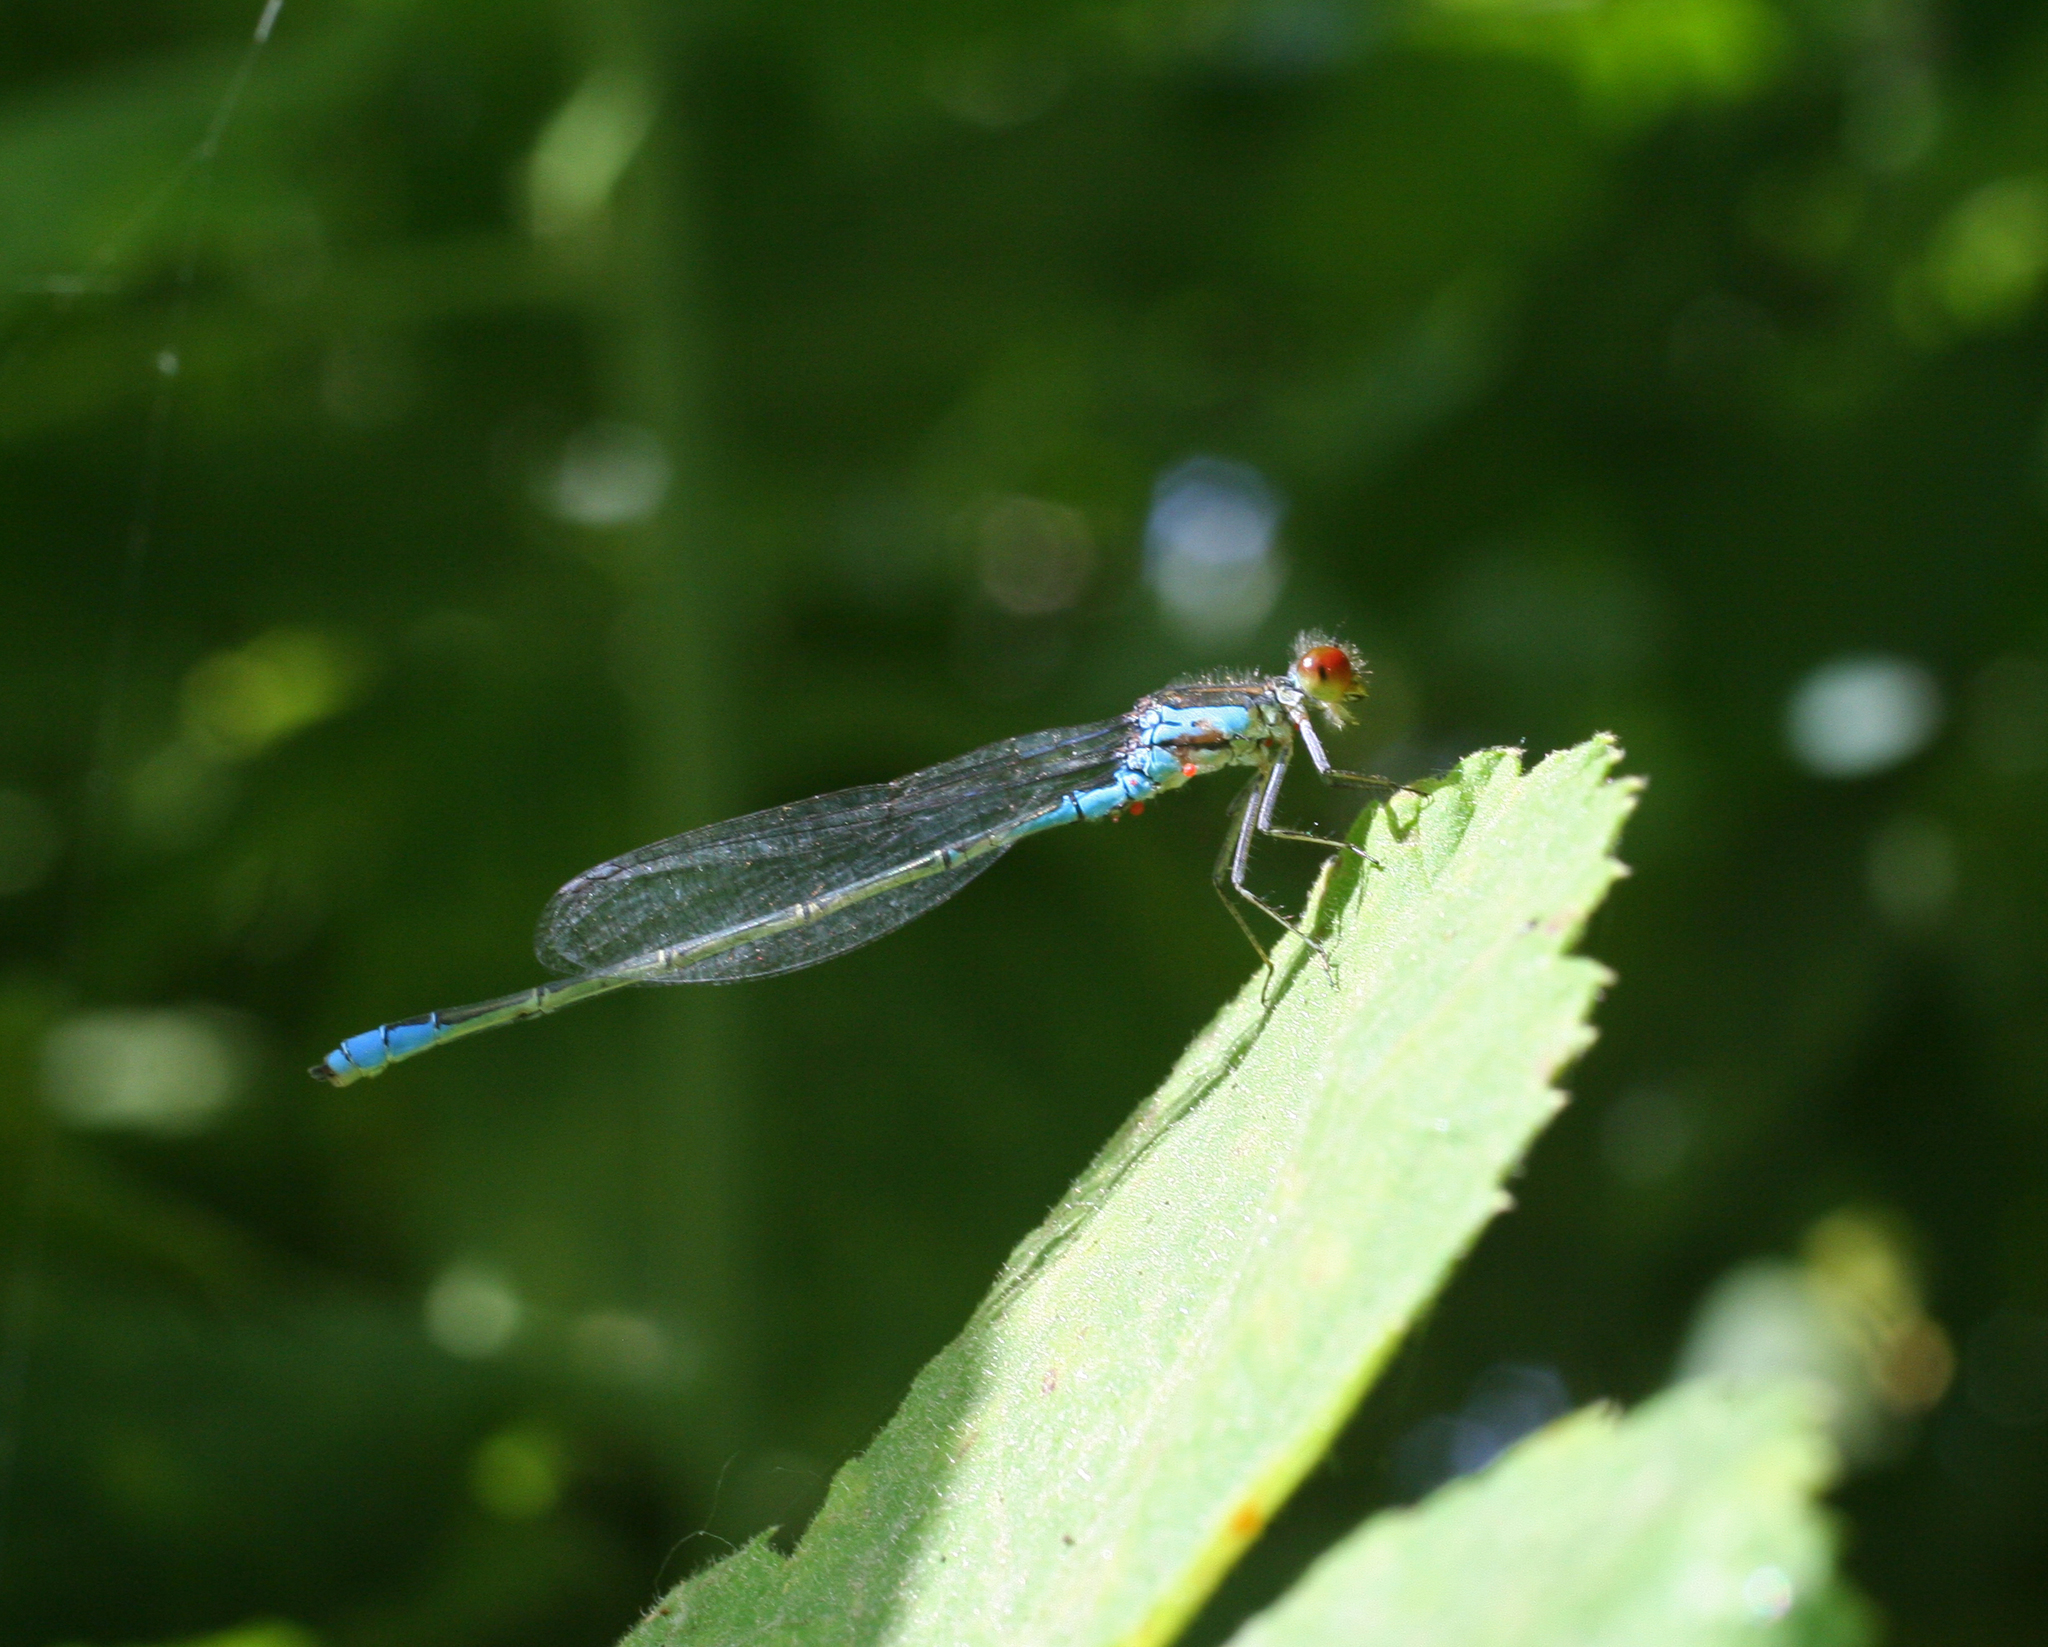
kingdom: Animalia
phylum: Arthropoda
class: Insecta
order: Odonata
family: Coenagrionidae
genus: Erythromma
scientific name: Erythromma viridulum
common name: Small red-eyed damselfly
